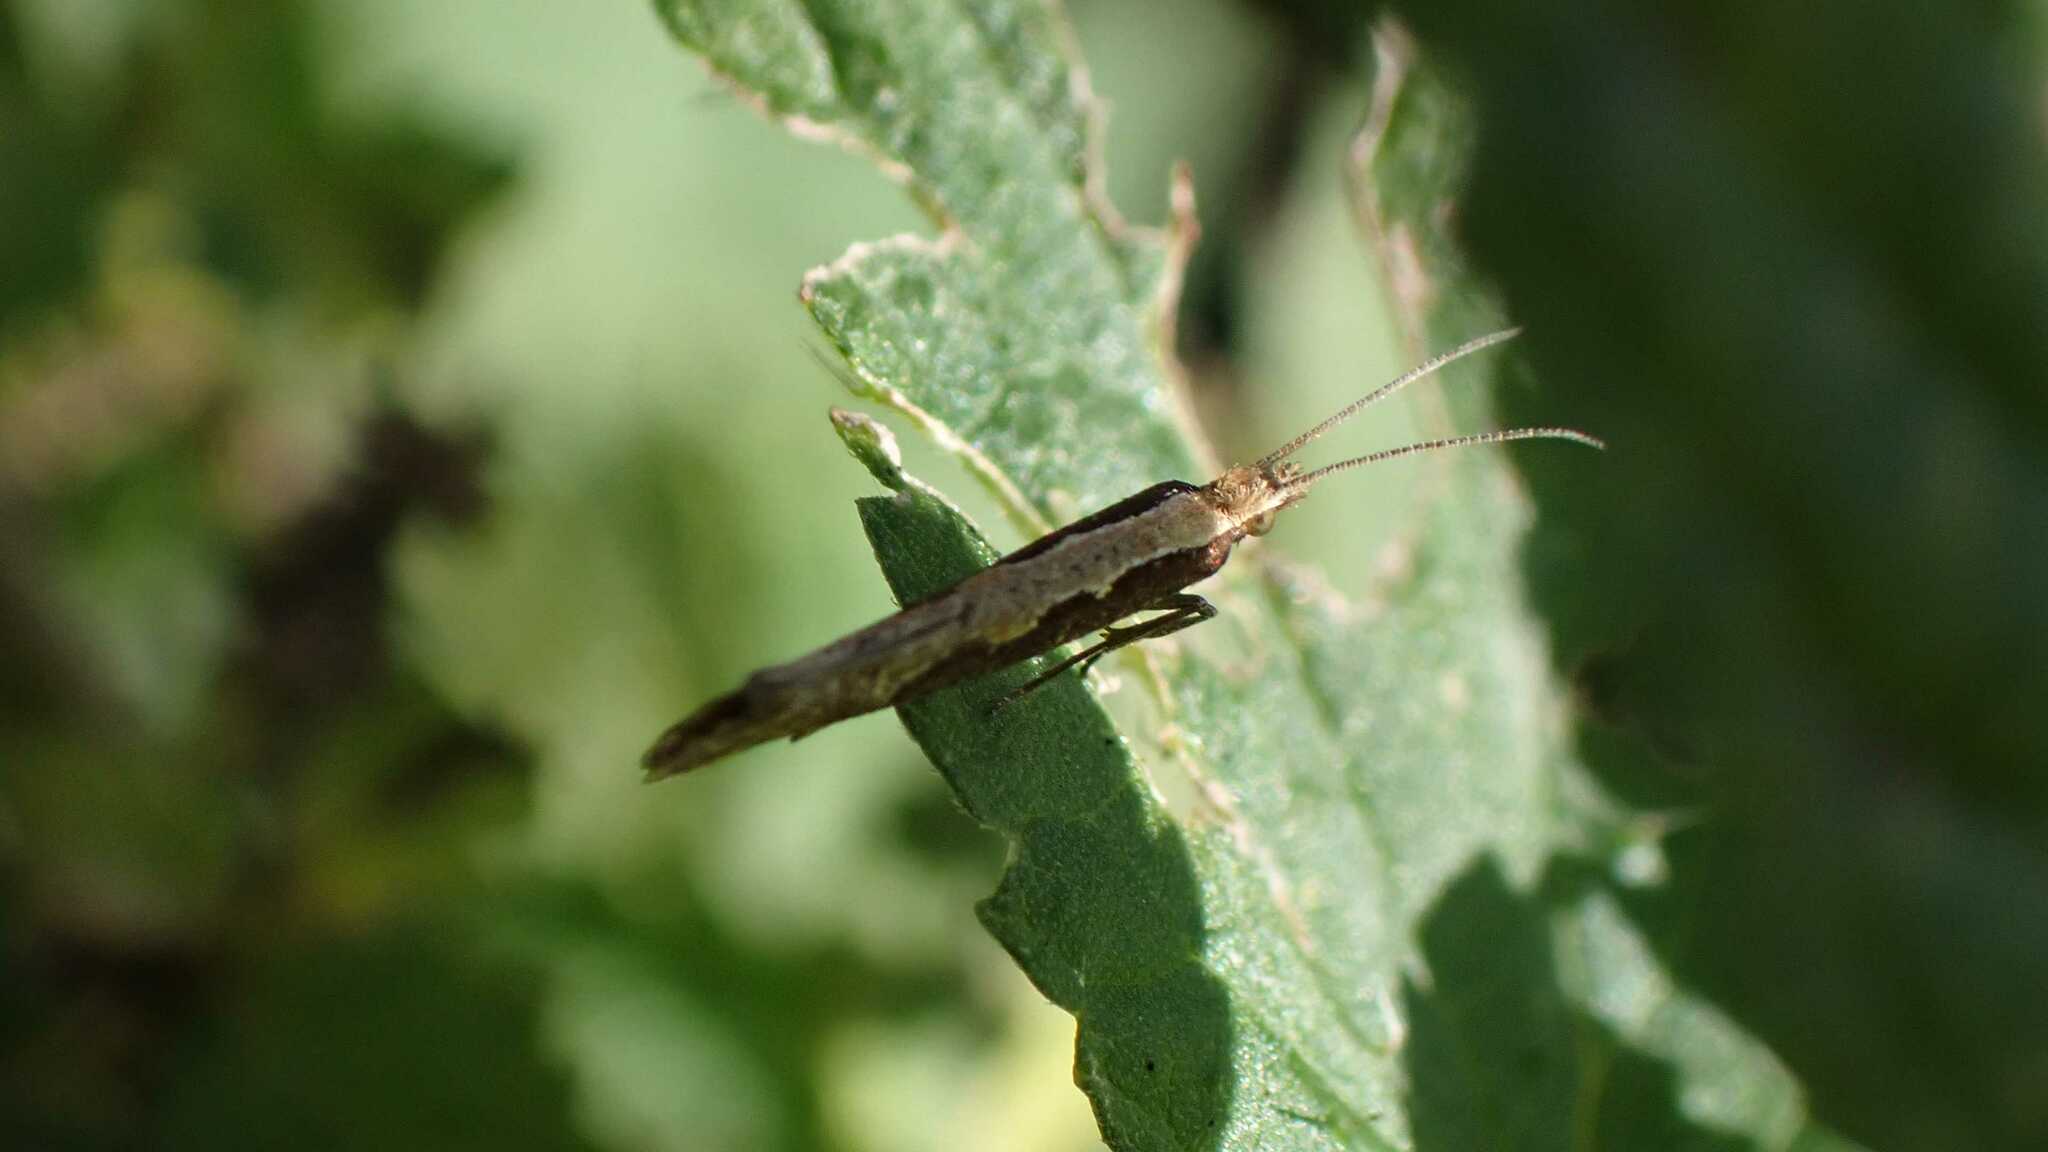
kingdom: Animalia
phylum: Arthropoda
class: Insecta
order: Lepidoptera
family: Plutellidae
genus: Plutella
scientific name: Plutella xylostella
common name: Diamond-back moth
